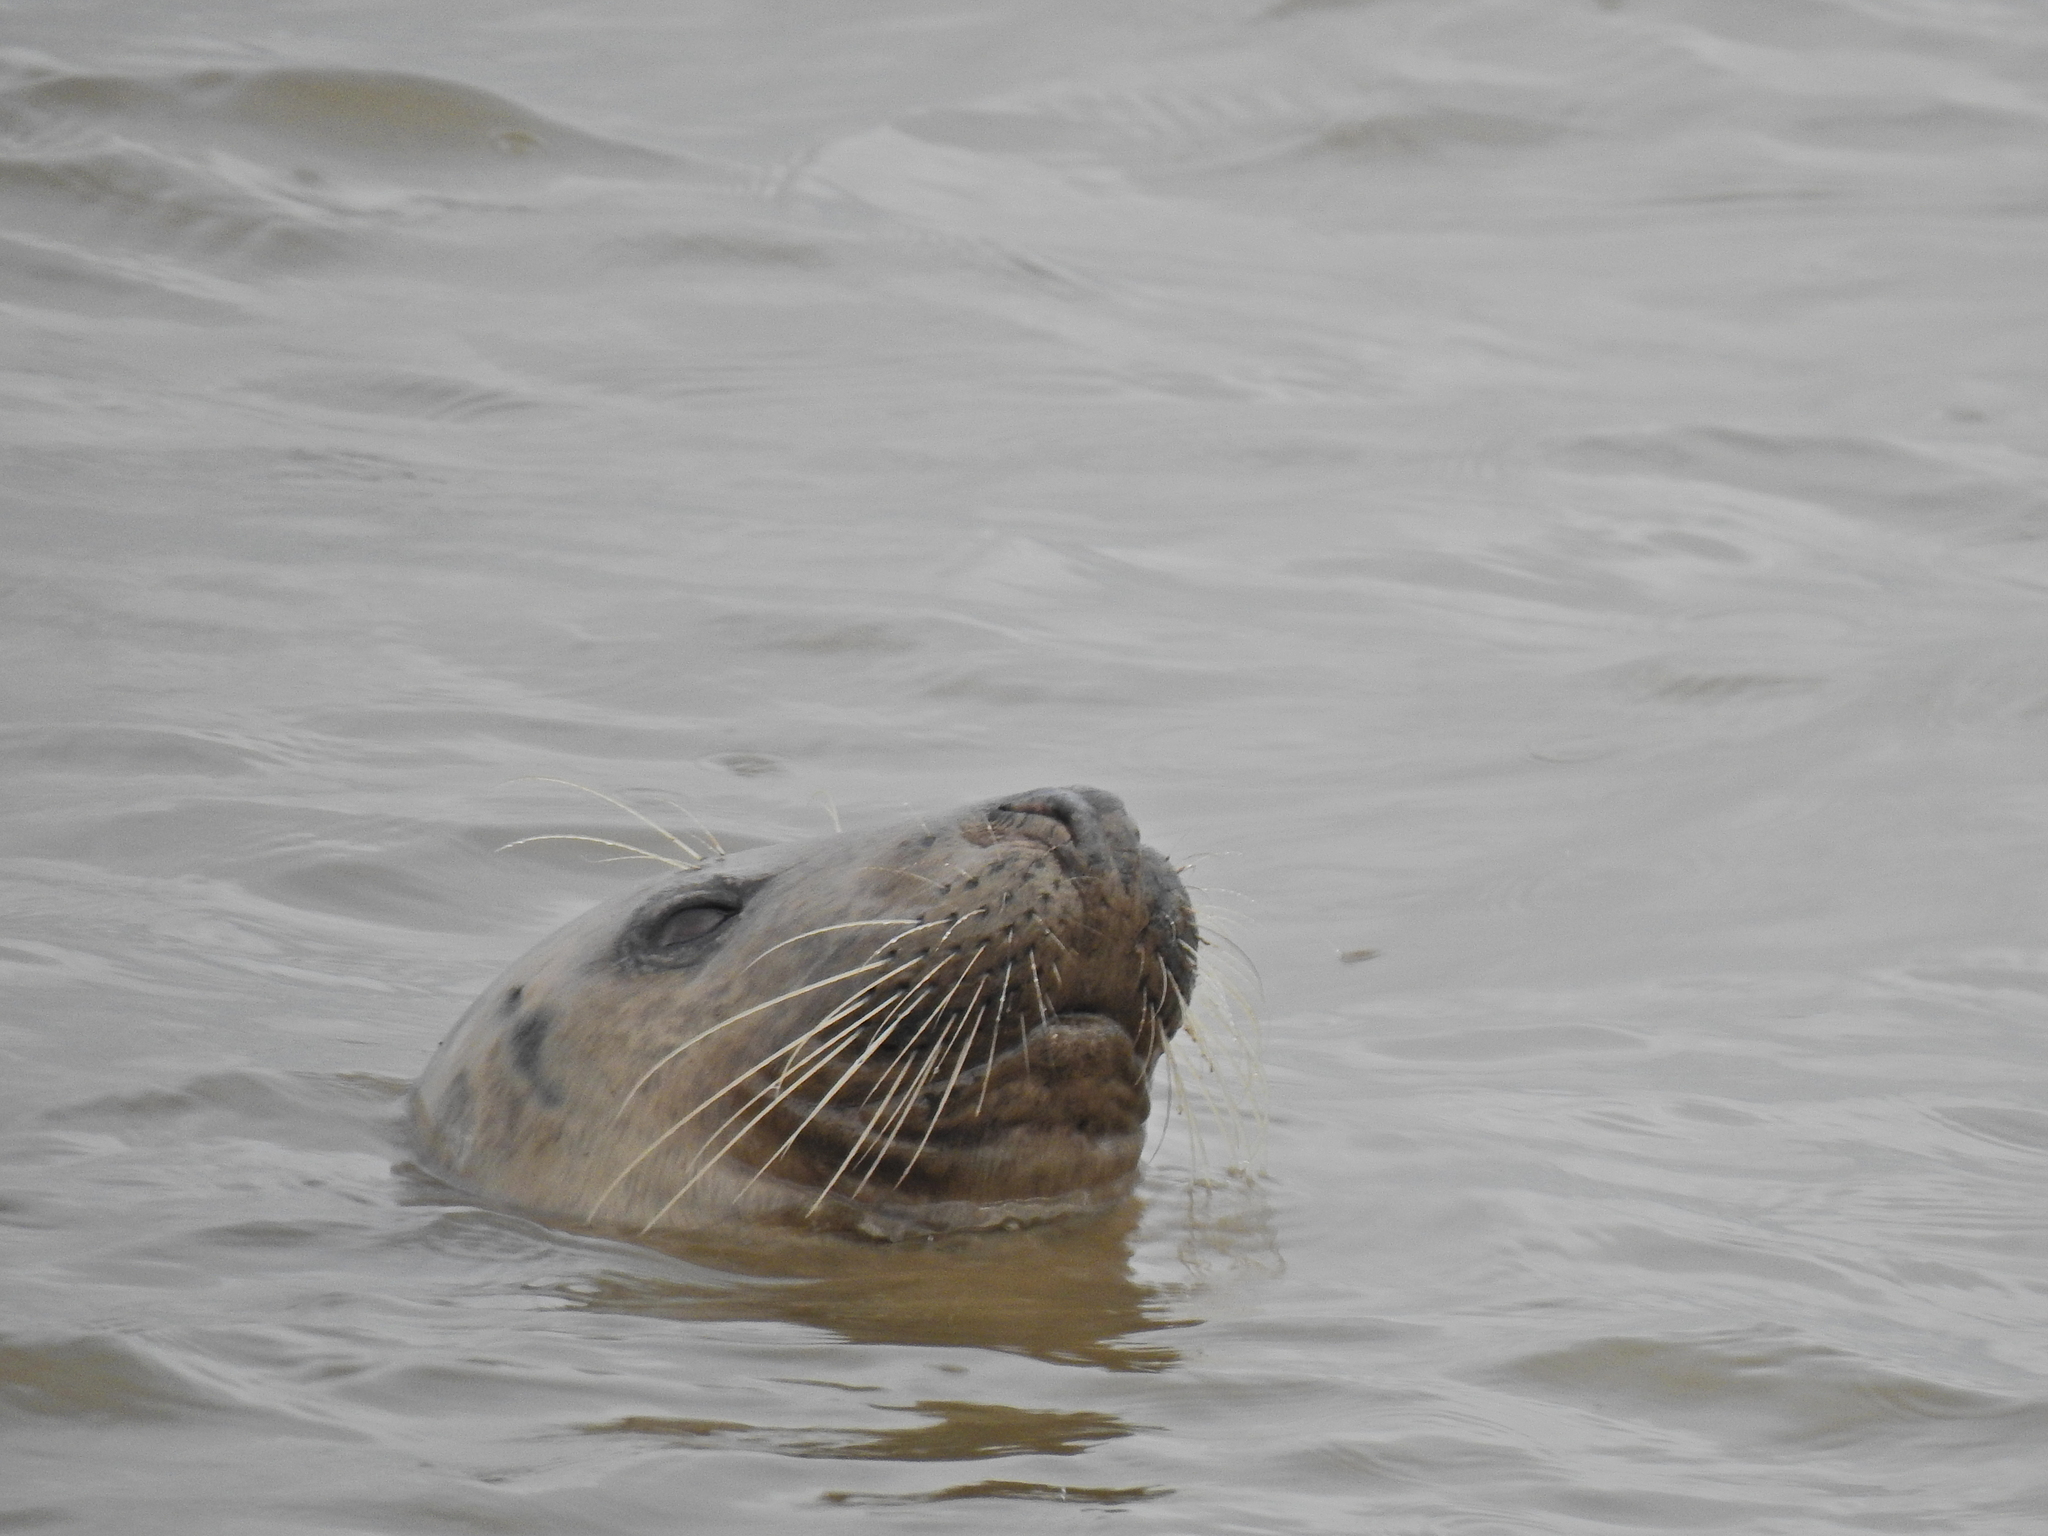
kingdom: Animalia
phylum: Chordata
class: Mammalia
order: Carnivora
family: Phocidae
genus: Halichoerus
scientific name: Halichoerus grypus
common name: Grey seal
